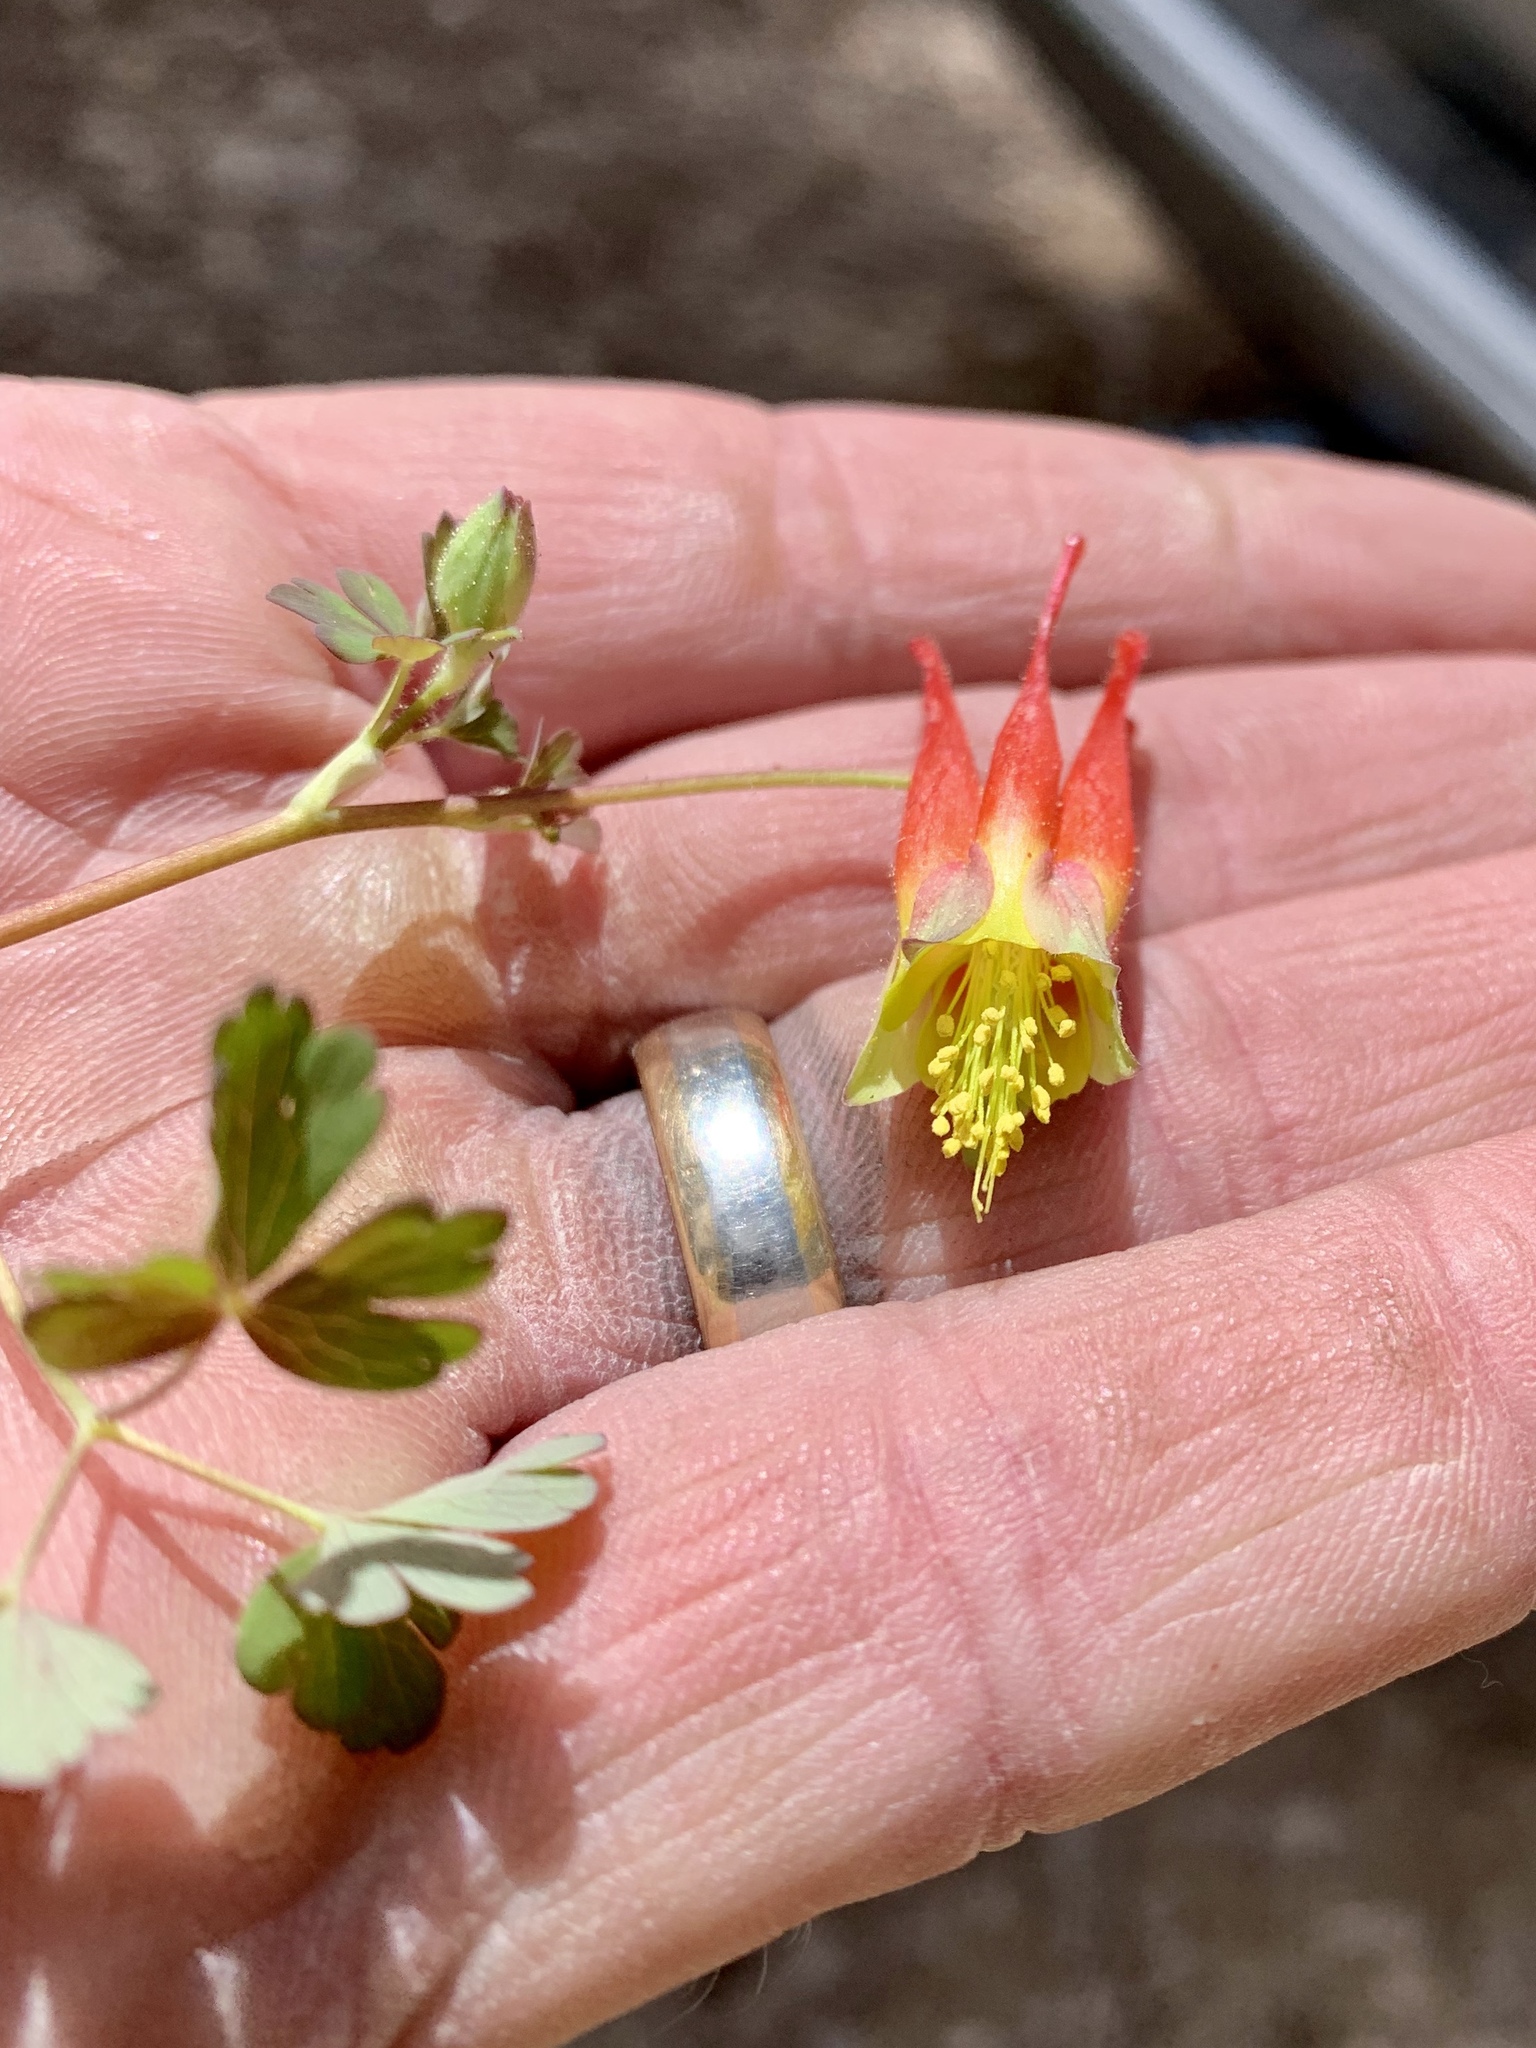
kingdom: Plantae
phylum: Tracheophyta
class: Magnoliopsida
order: Ranunculales
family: Ranunculaceae
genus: Aquilegia
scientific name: Aquilegia elegantula
